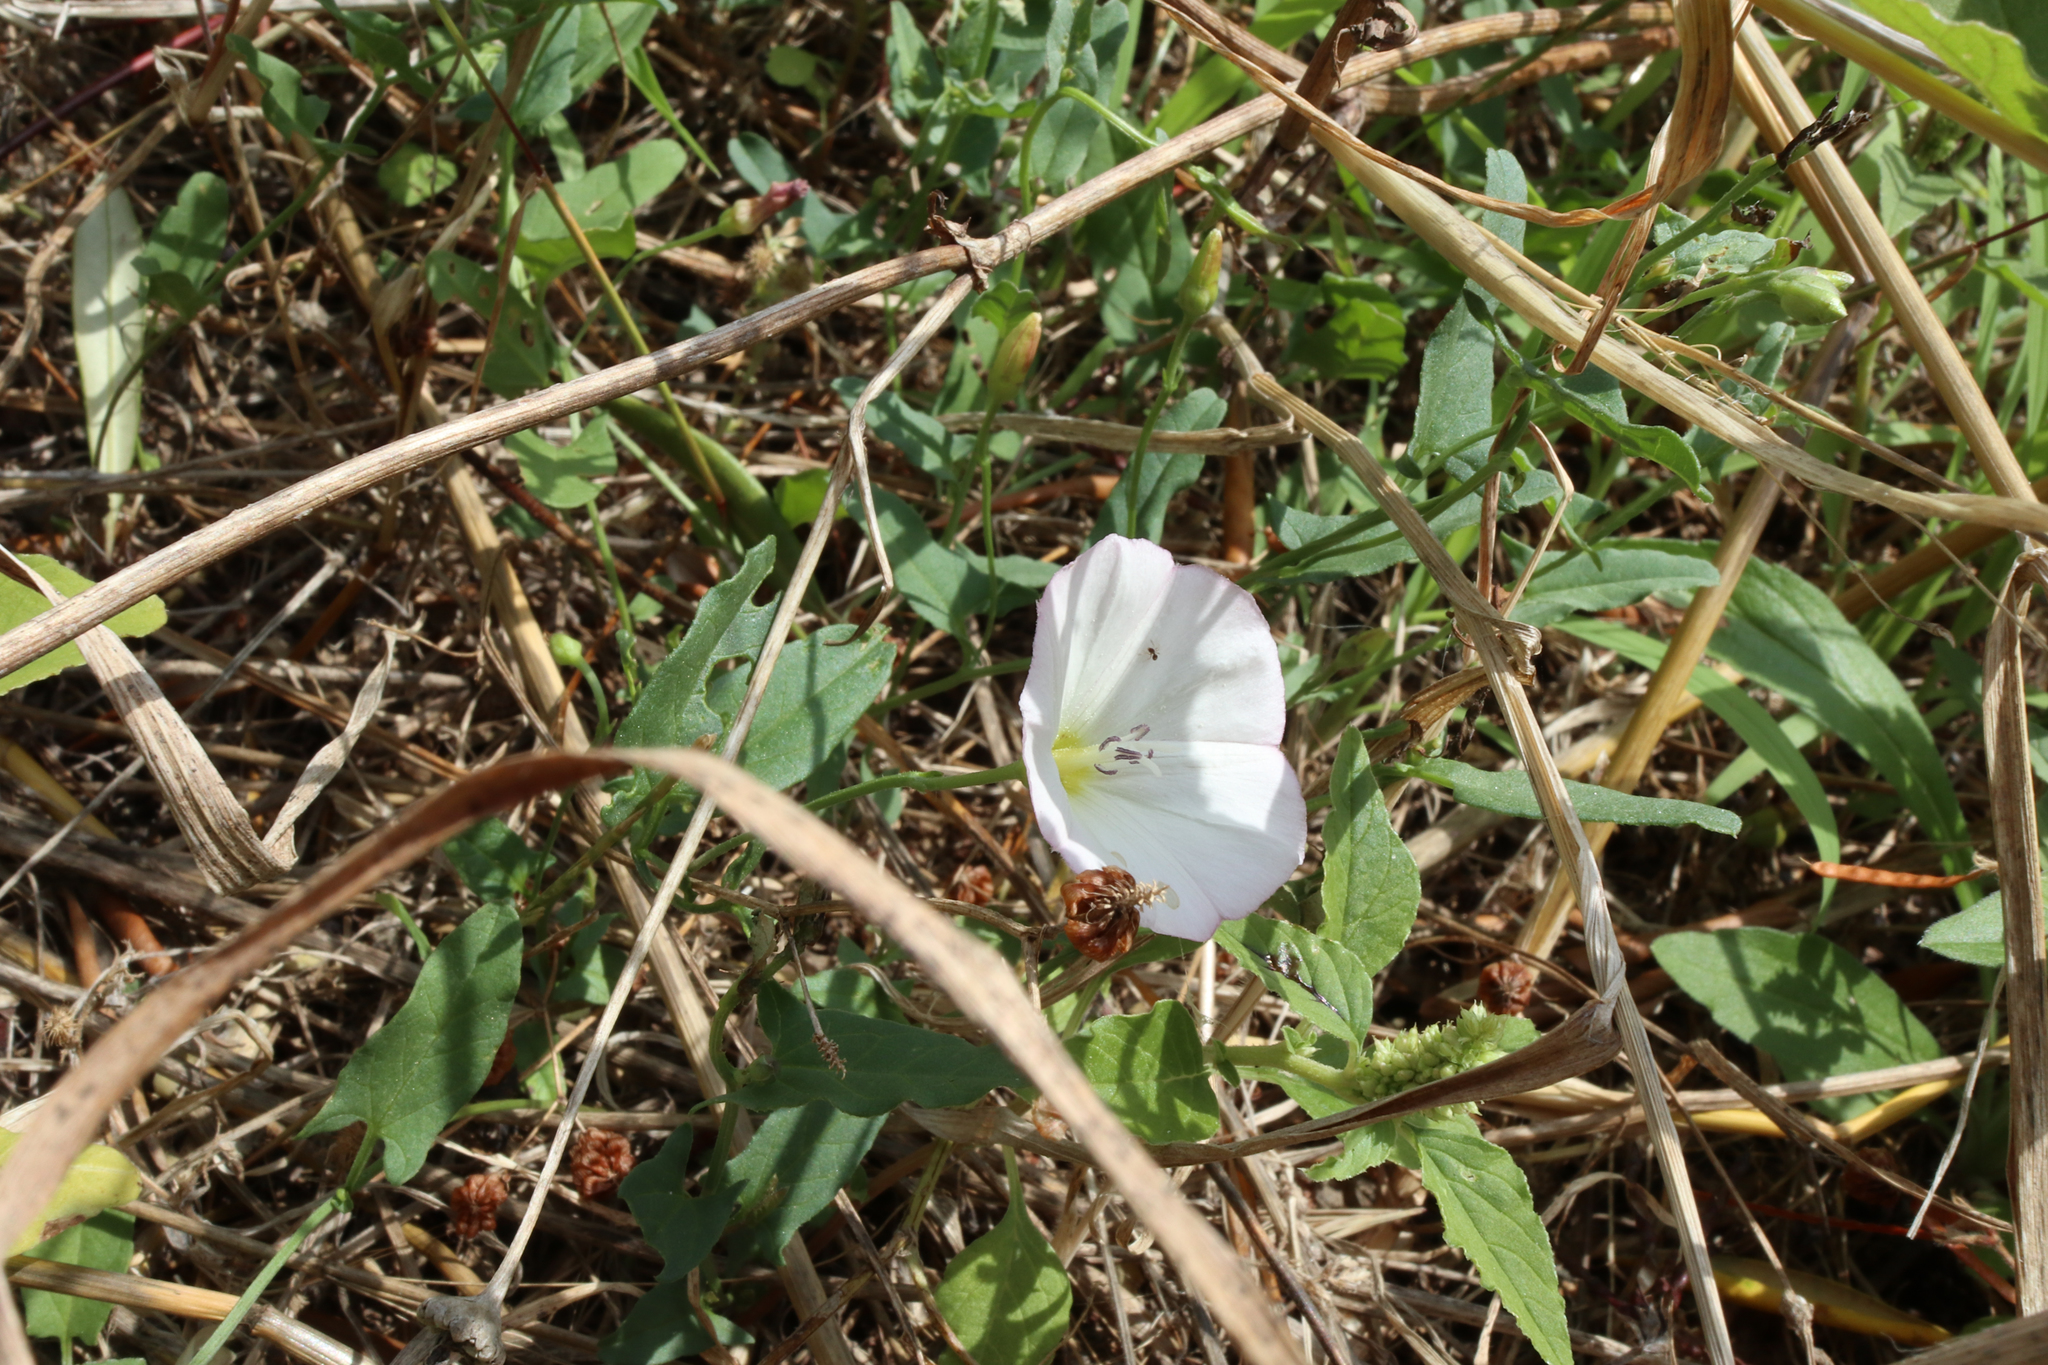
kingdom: Plantae
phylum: Tracheophyta
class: Magnoliopsida
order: Solanales
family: Convolvulaceae
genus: Convolvulus
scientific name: Convolvulus arvensis
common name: Field bindweed
